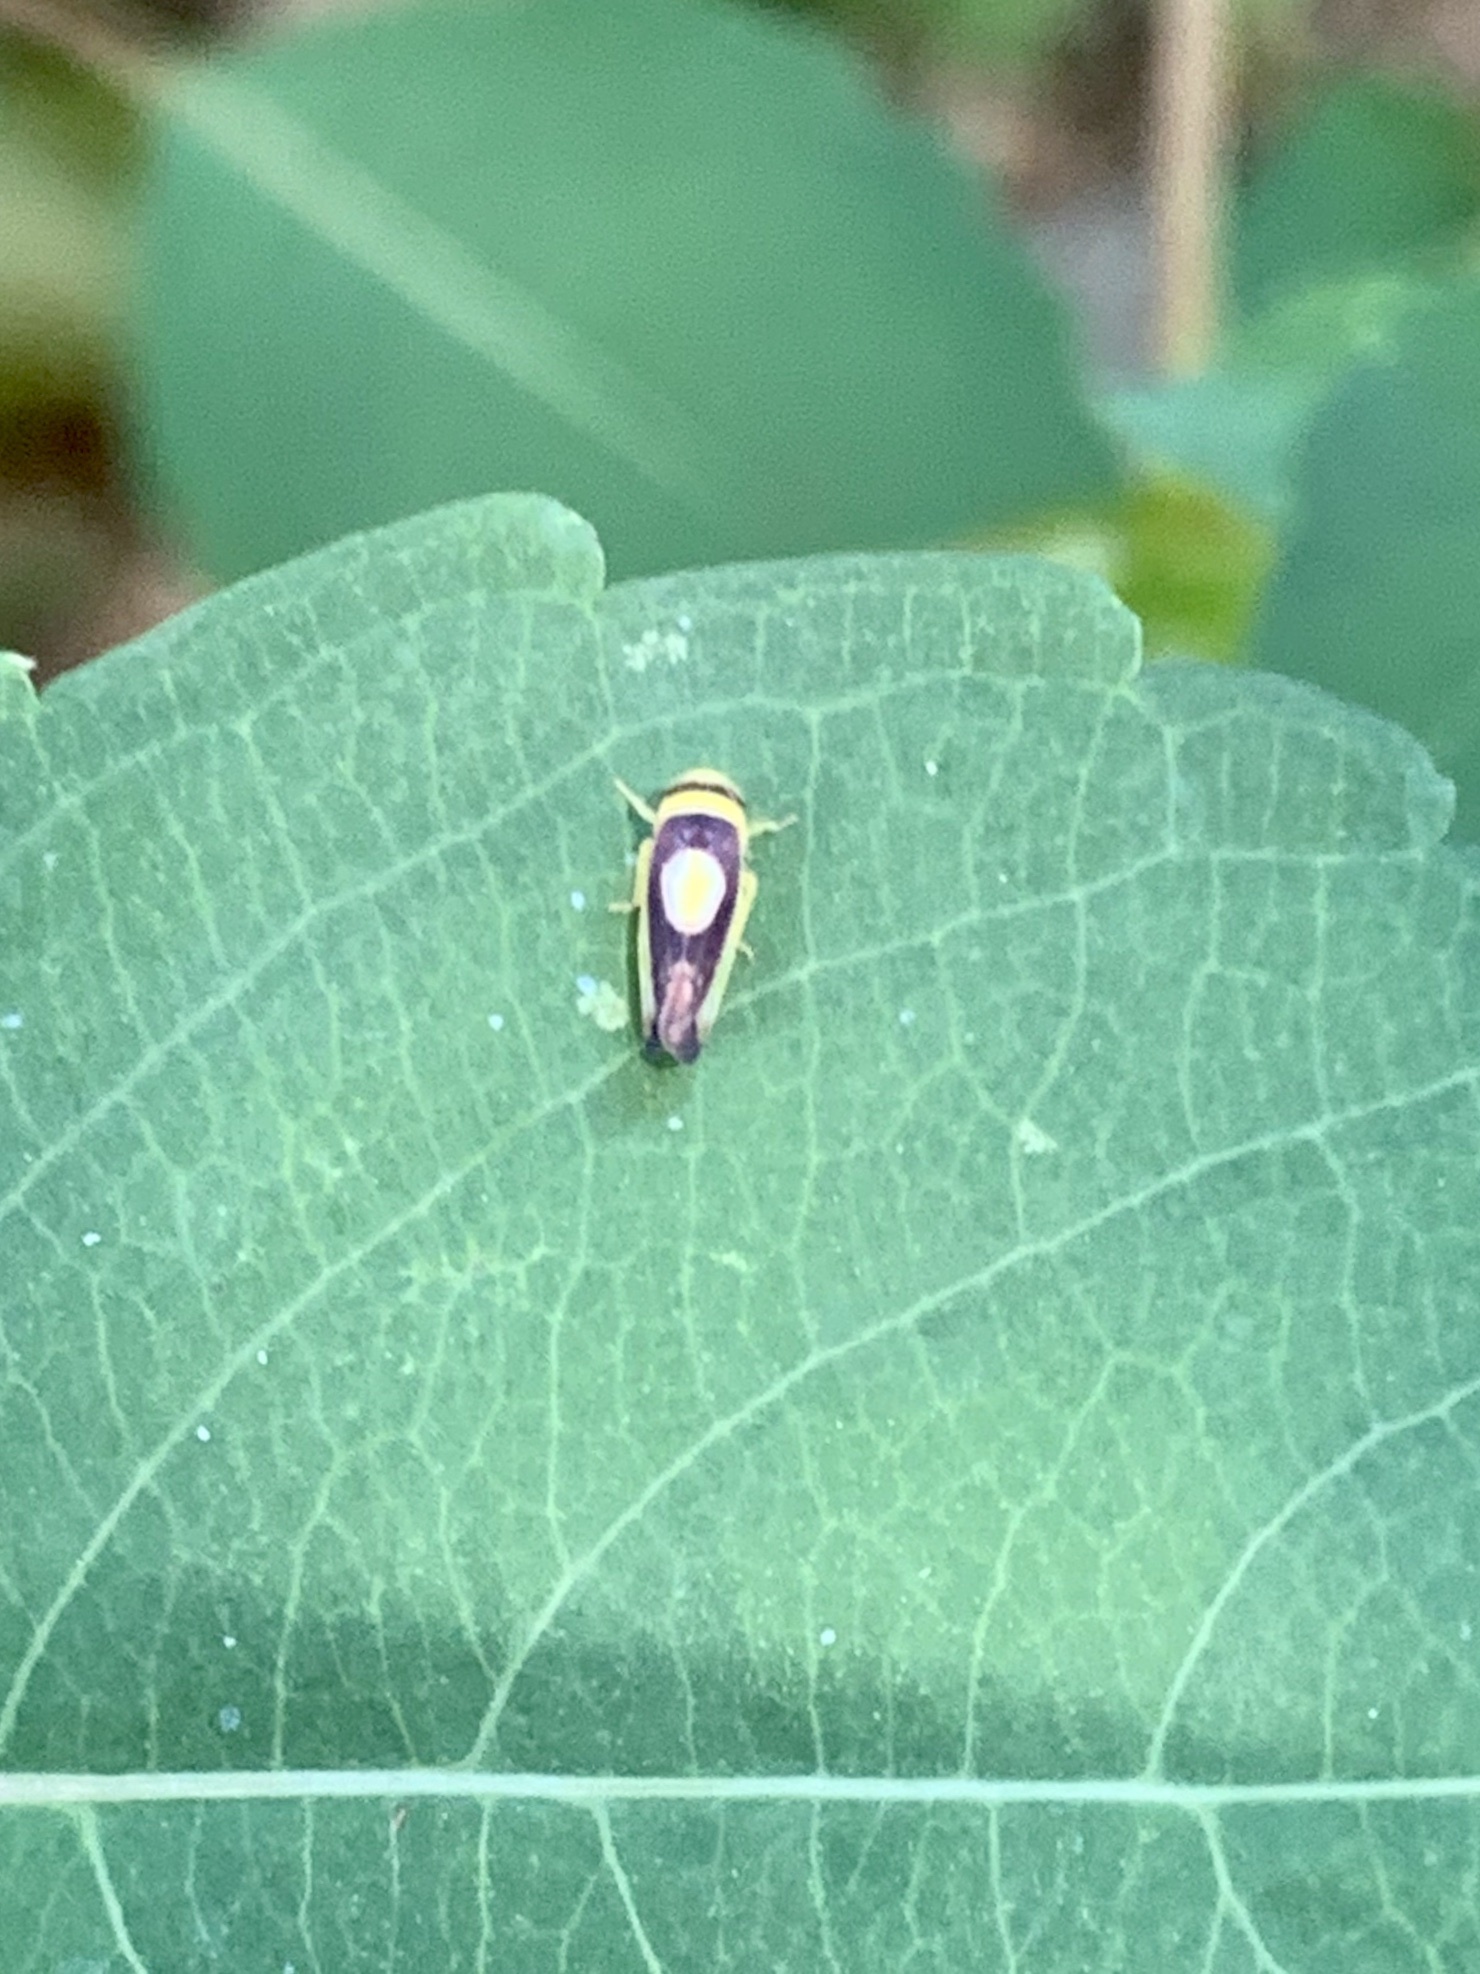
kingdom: Animalia
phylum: Arthropoda
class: Insecta
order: Hemiptera
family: Cicadellidae
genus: Colladonus
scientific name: Colladonus clitellarius
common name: The saddleback leafhopper
